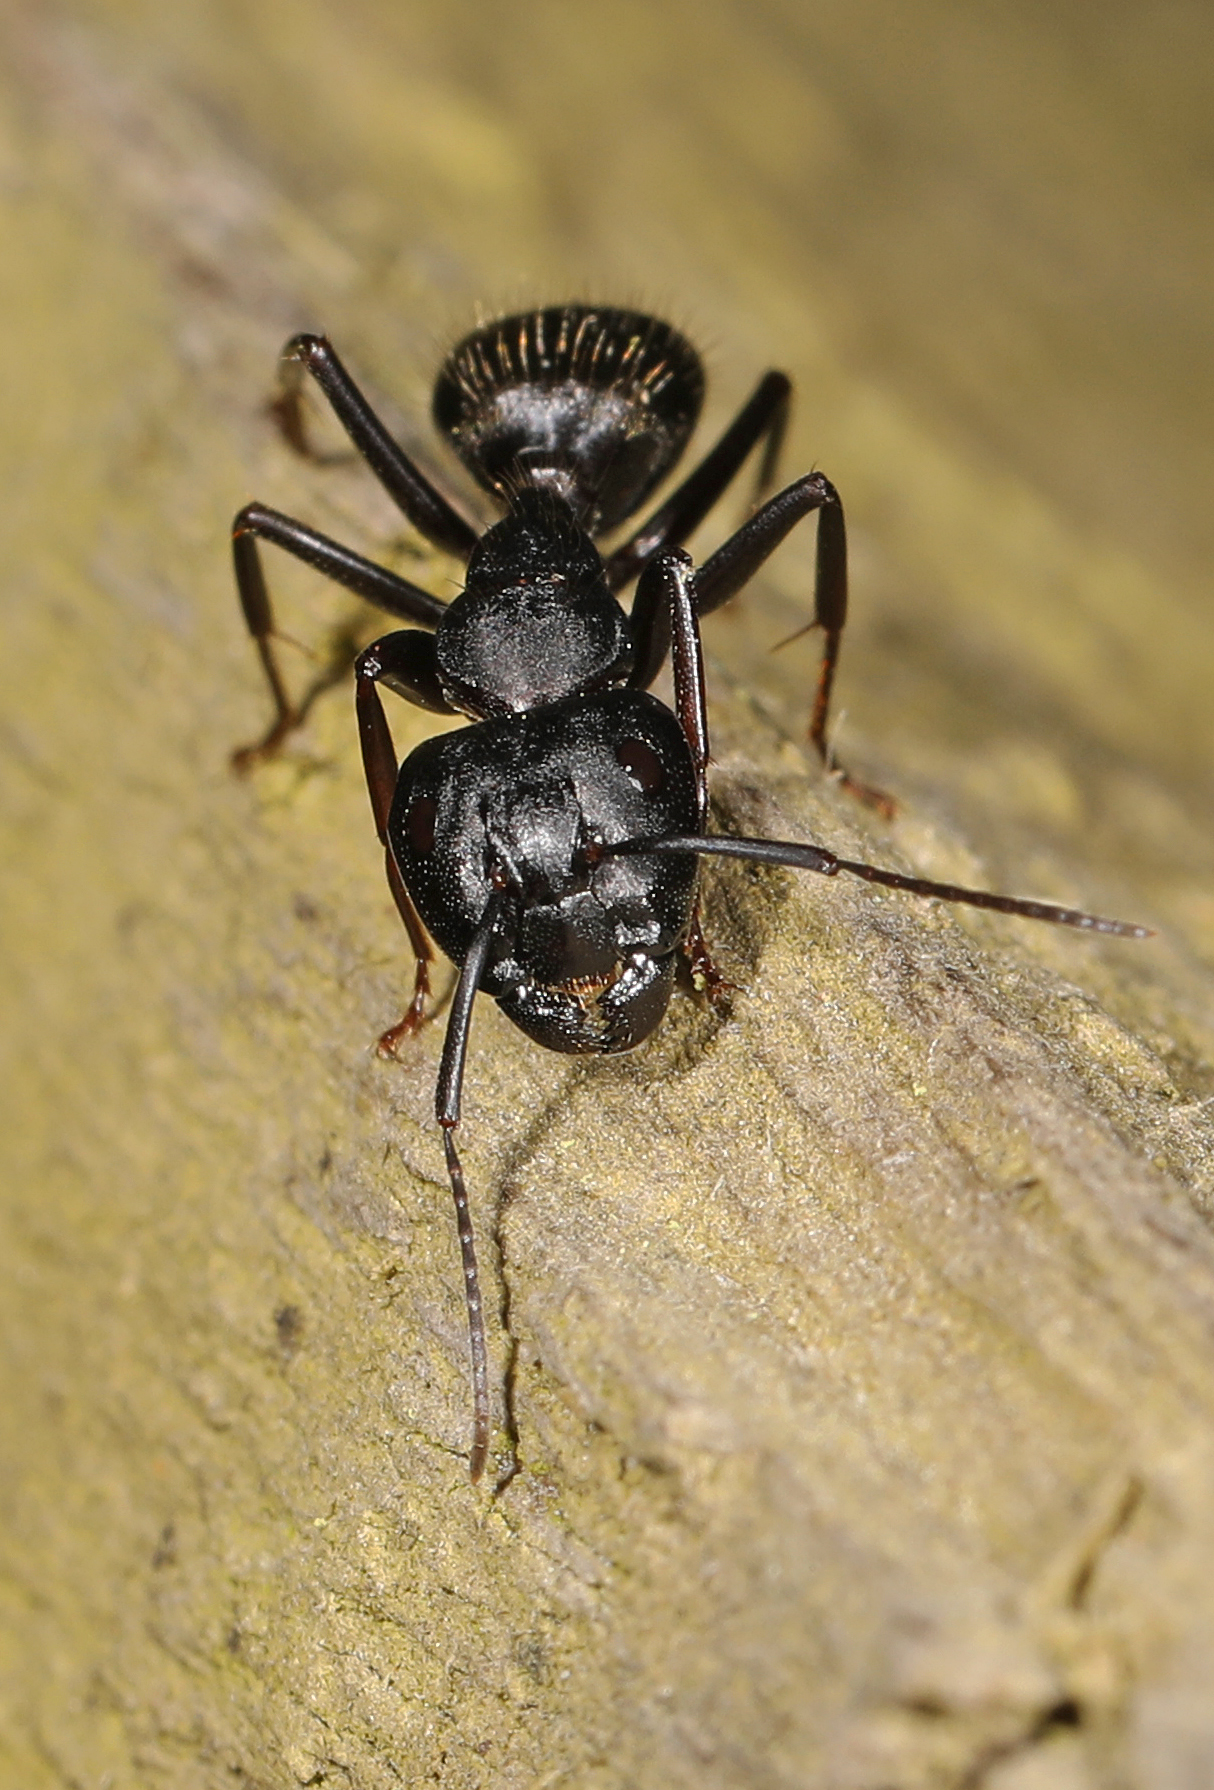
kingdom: Animalia
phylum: Arthropoda
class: Insecta
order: Hymenoptera
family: Formicidae
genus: Camponotus
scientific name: Camponotus pennsylvanicus
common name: Black carpenter ant
